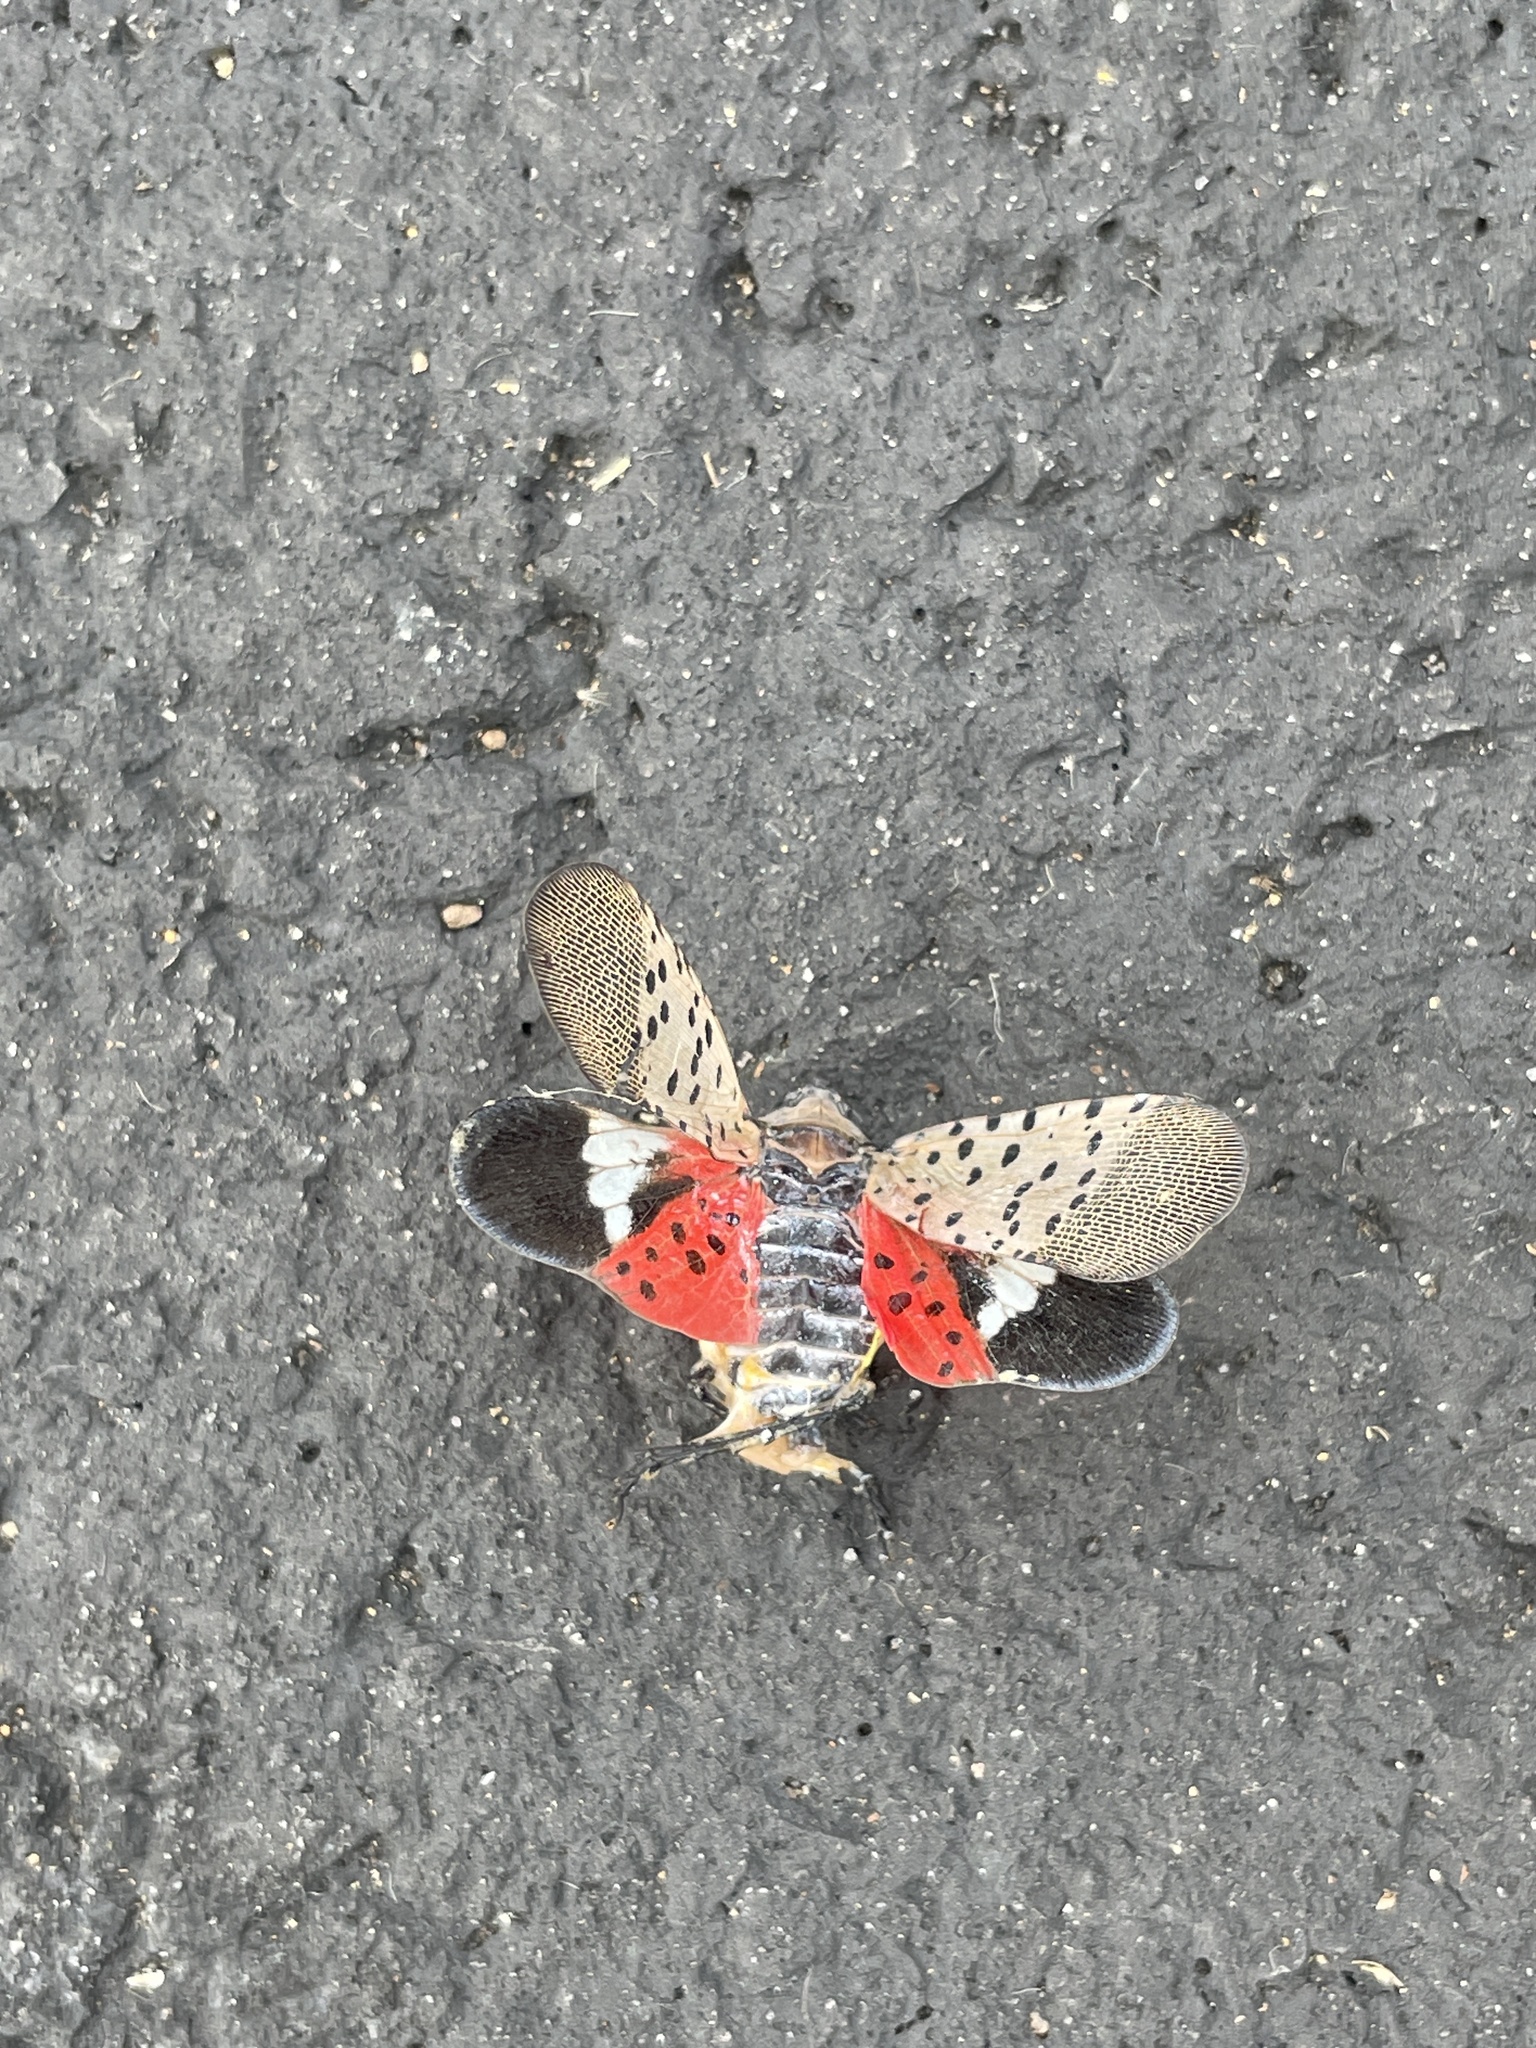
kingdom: Animalia
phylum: Arthropoda
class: Insecta
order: Hemiptera
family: Fulgoridae
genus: Lycorma
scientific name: Lycorma delicatula
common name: Spotted lanternfly
